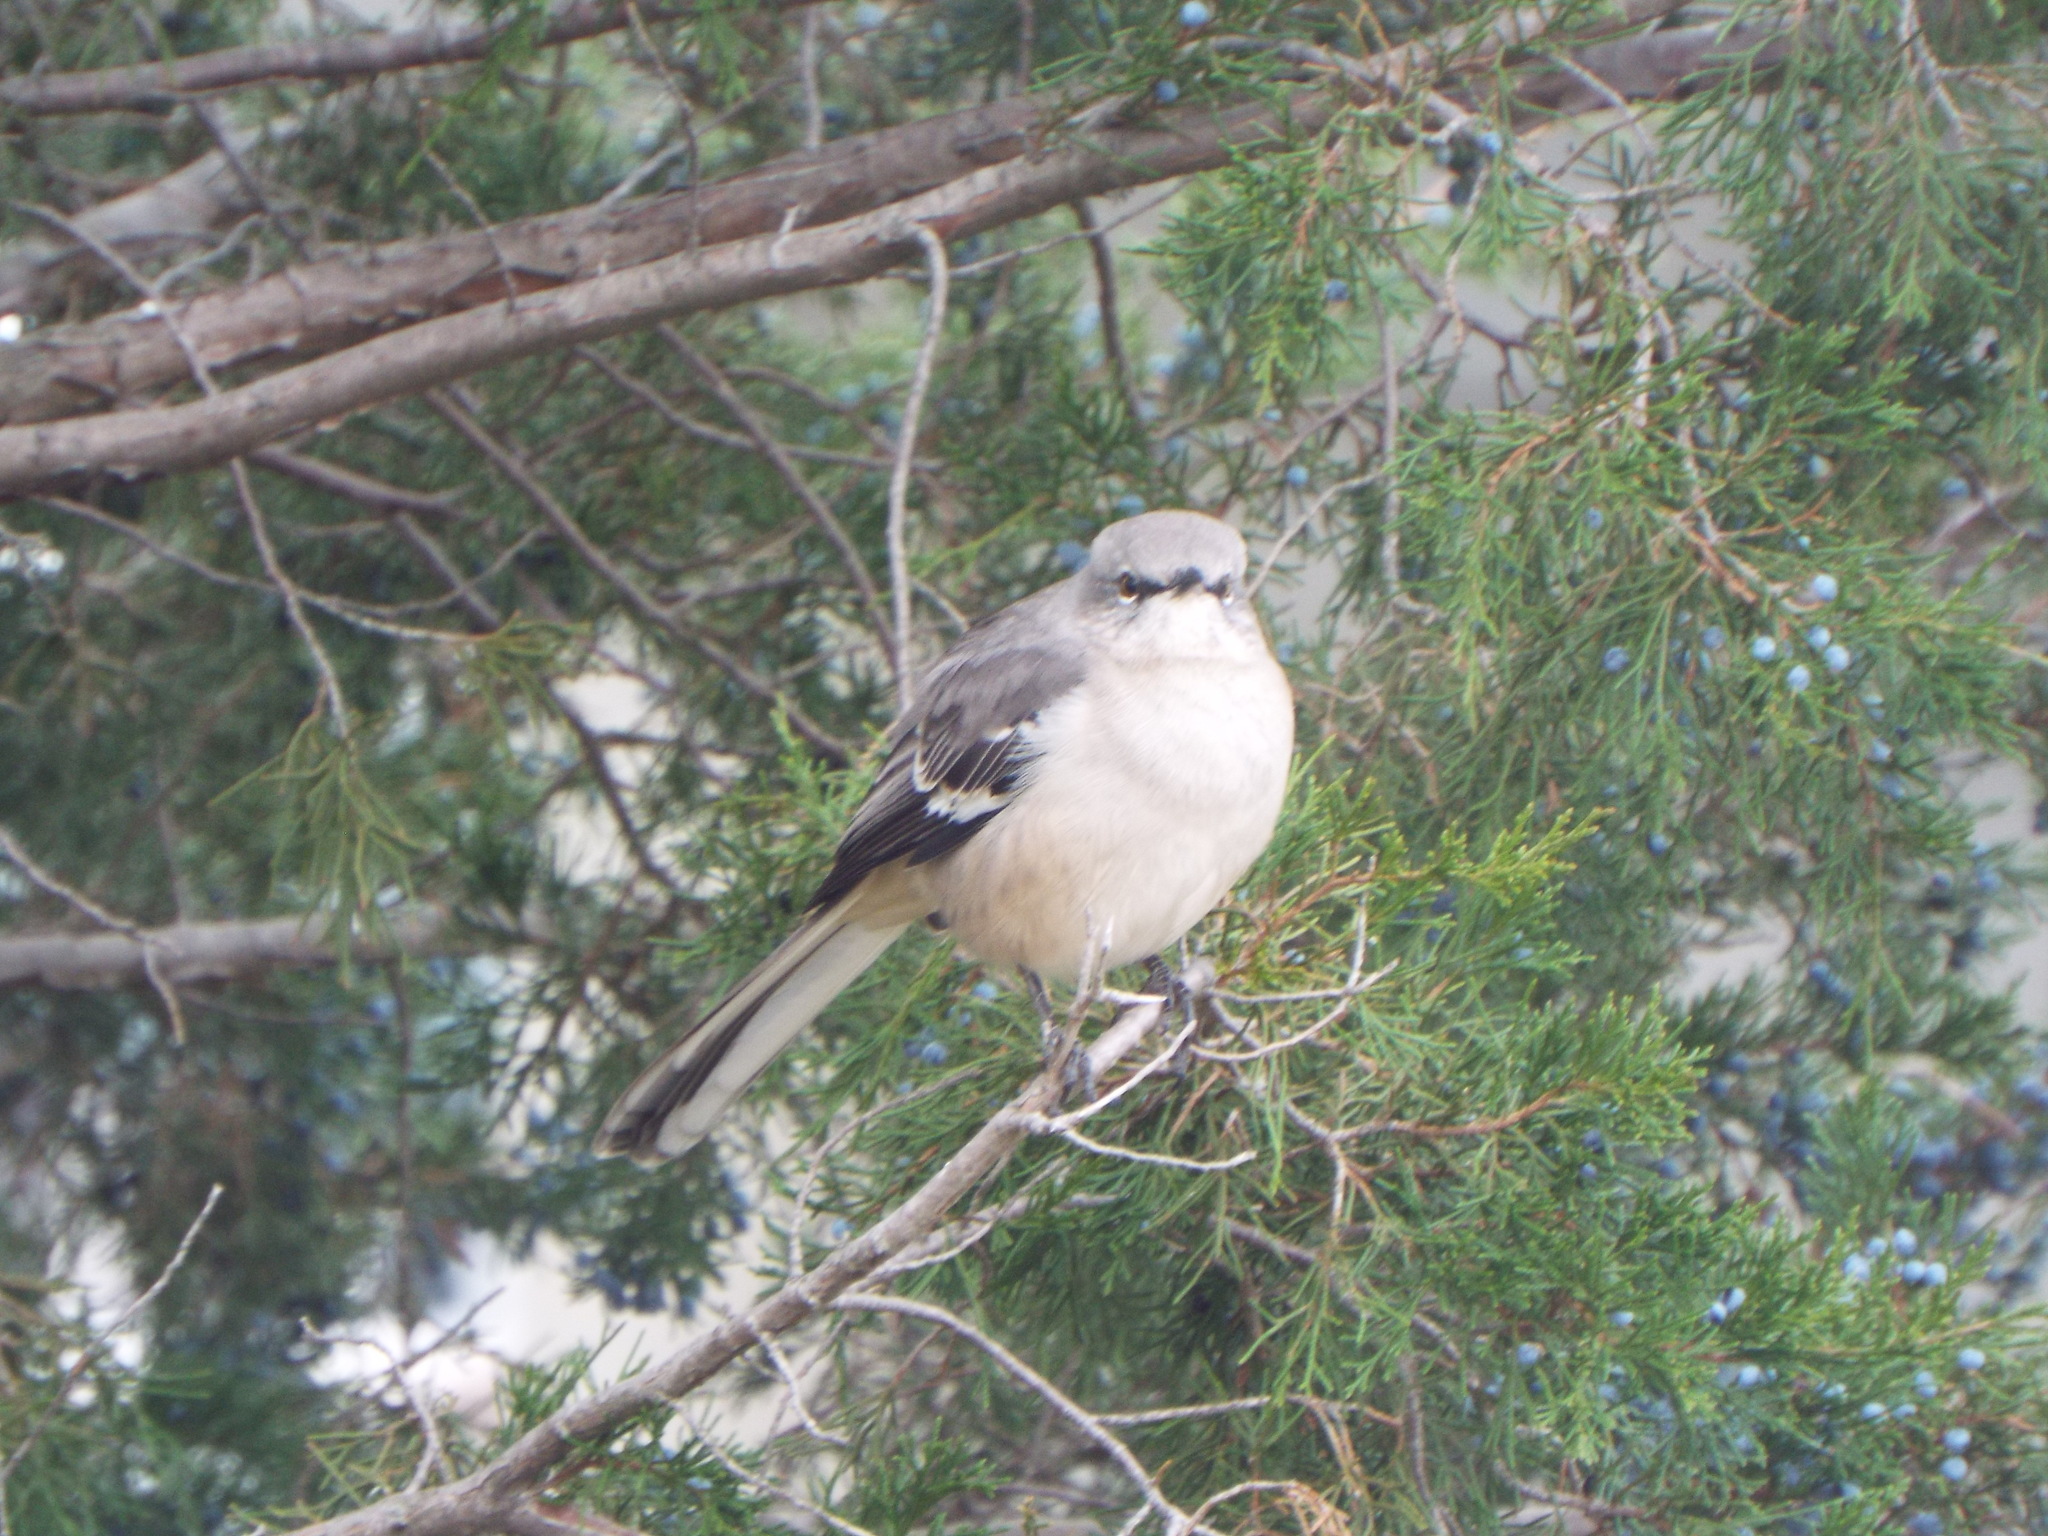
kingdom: Animalia
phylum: Chordata
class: Aves
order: Passeriformes
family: Mimidae
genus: Mimus
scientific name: Mimus polyglottos
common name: Northern mockingbird
